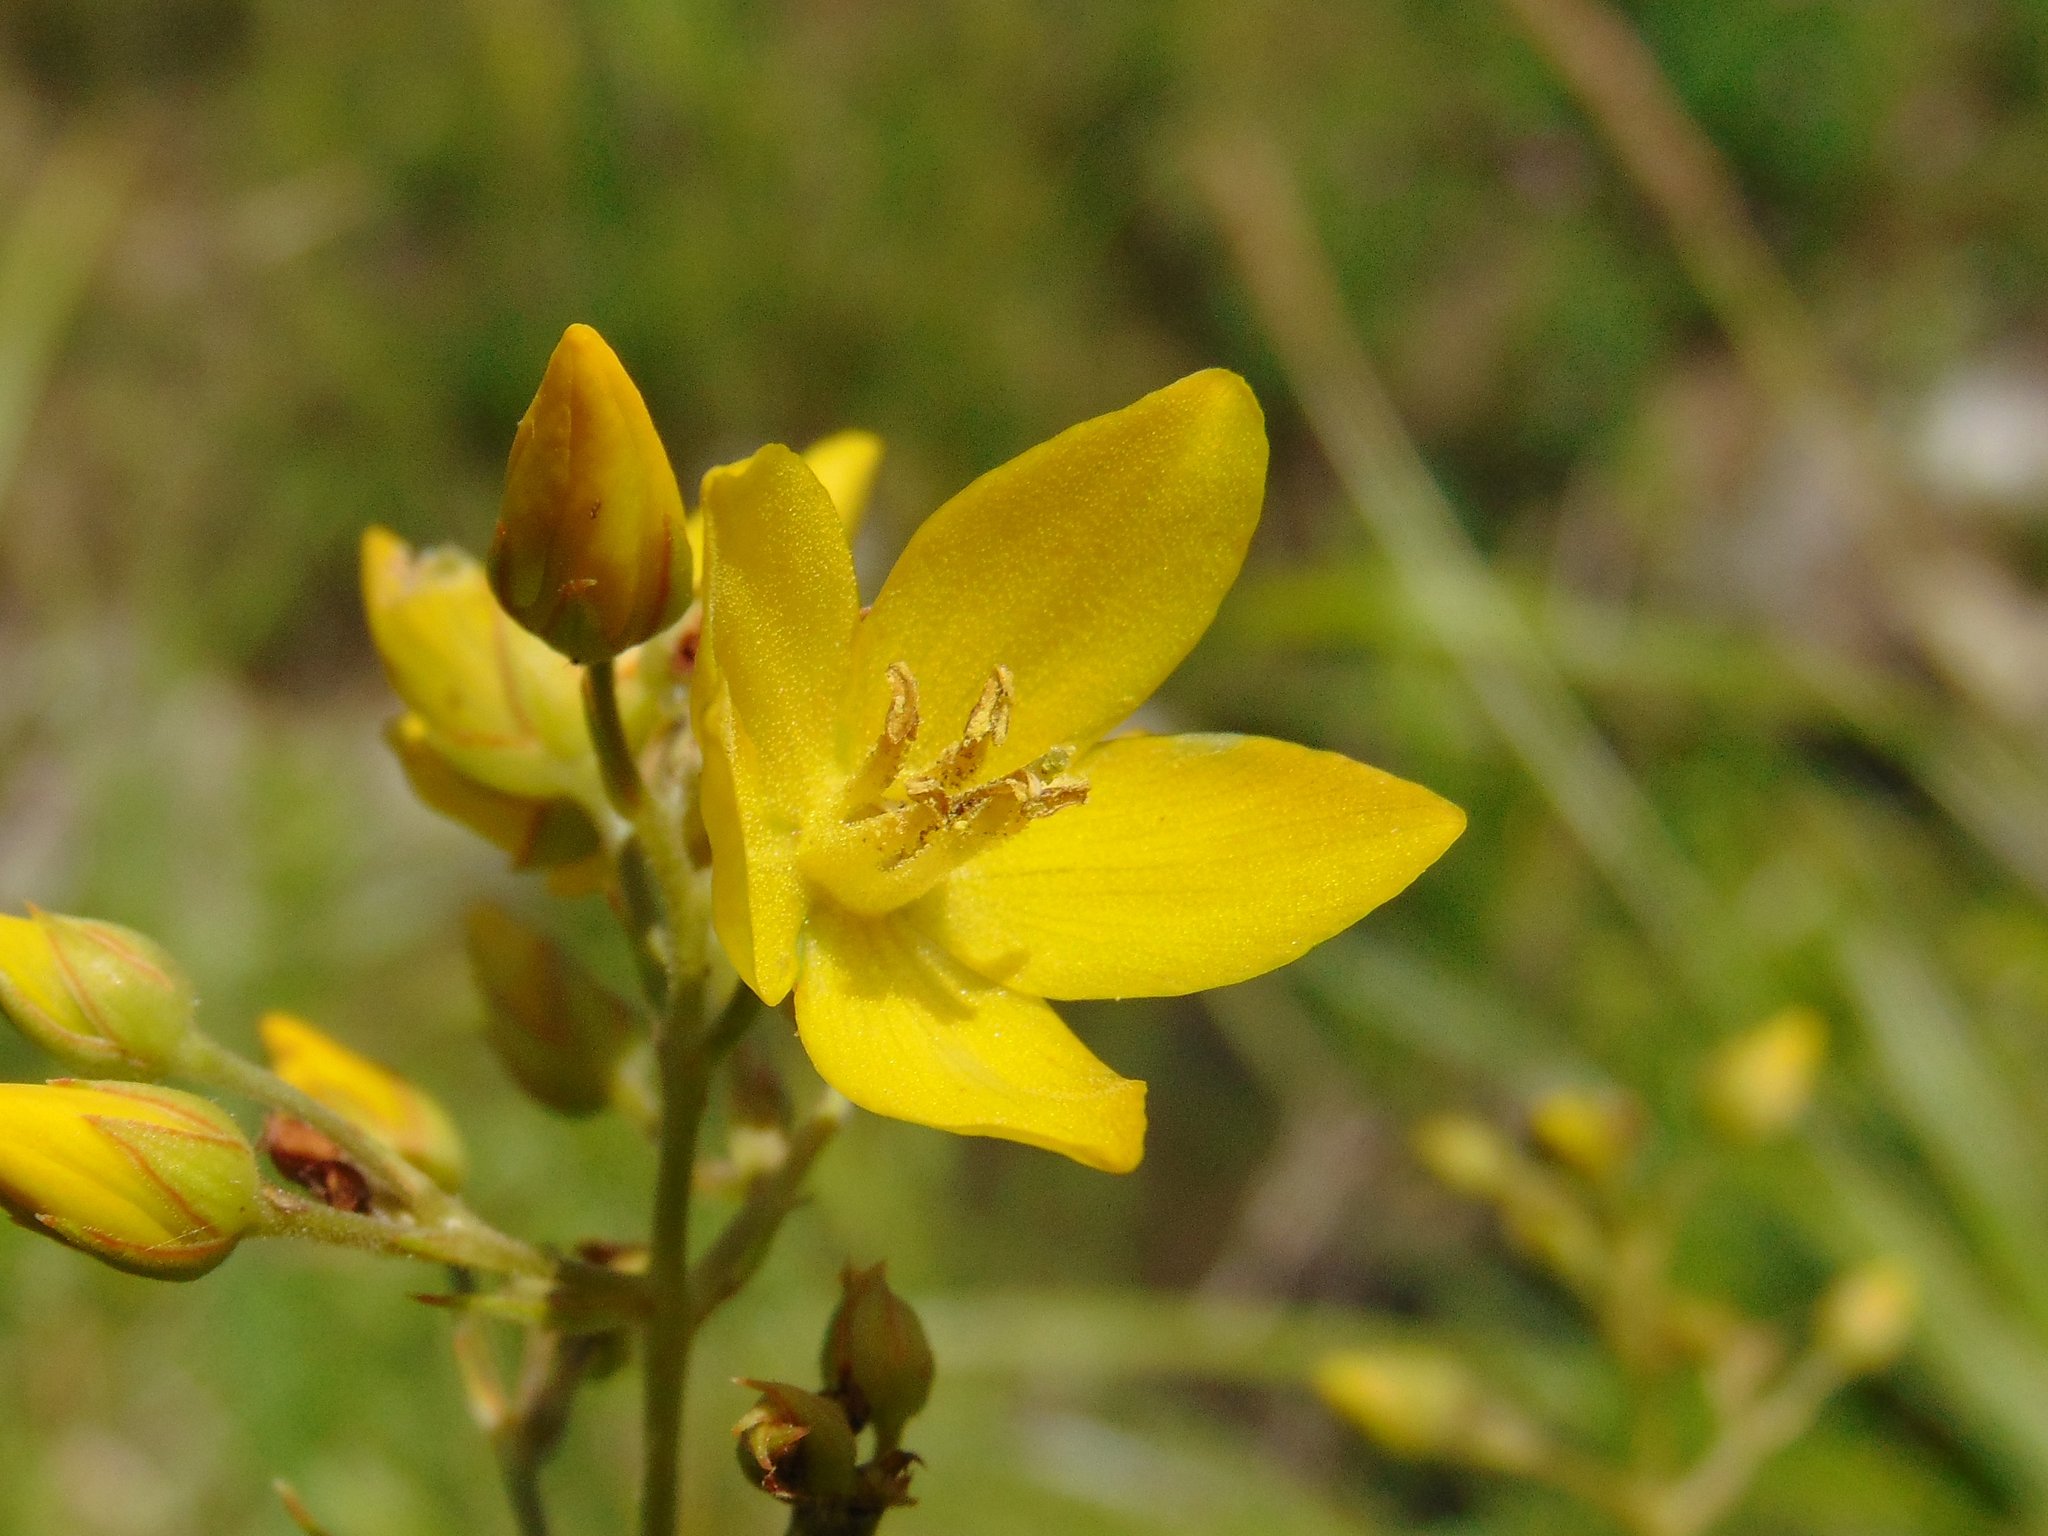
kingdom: Plantae
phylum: Tracheophyta
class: Magnoliopsida
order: Ericales
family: Primulaceae
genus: Lysimachia
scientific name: Lysimachia vulgaris
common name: Yellow loosestrife
